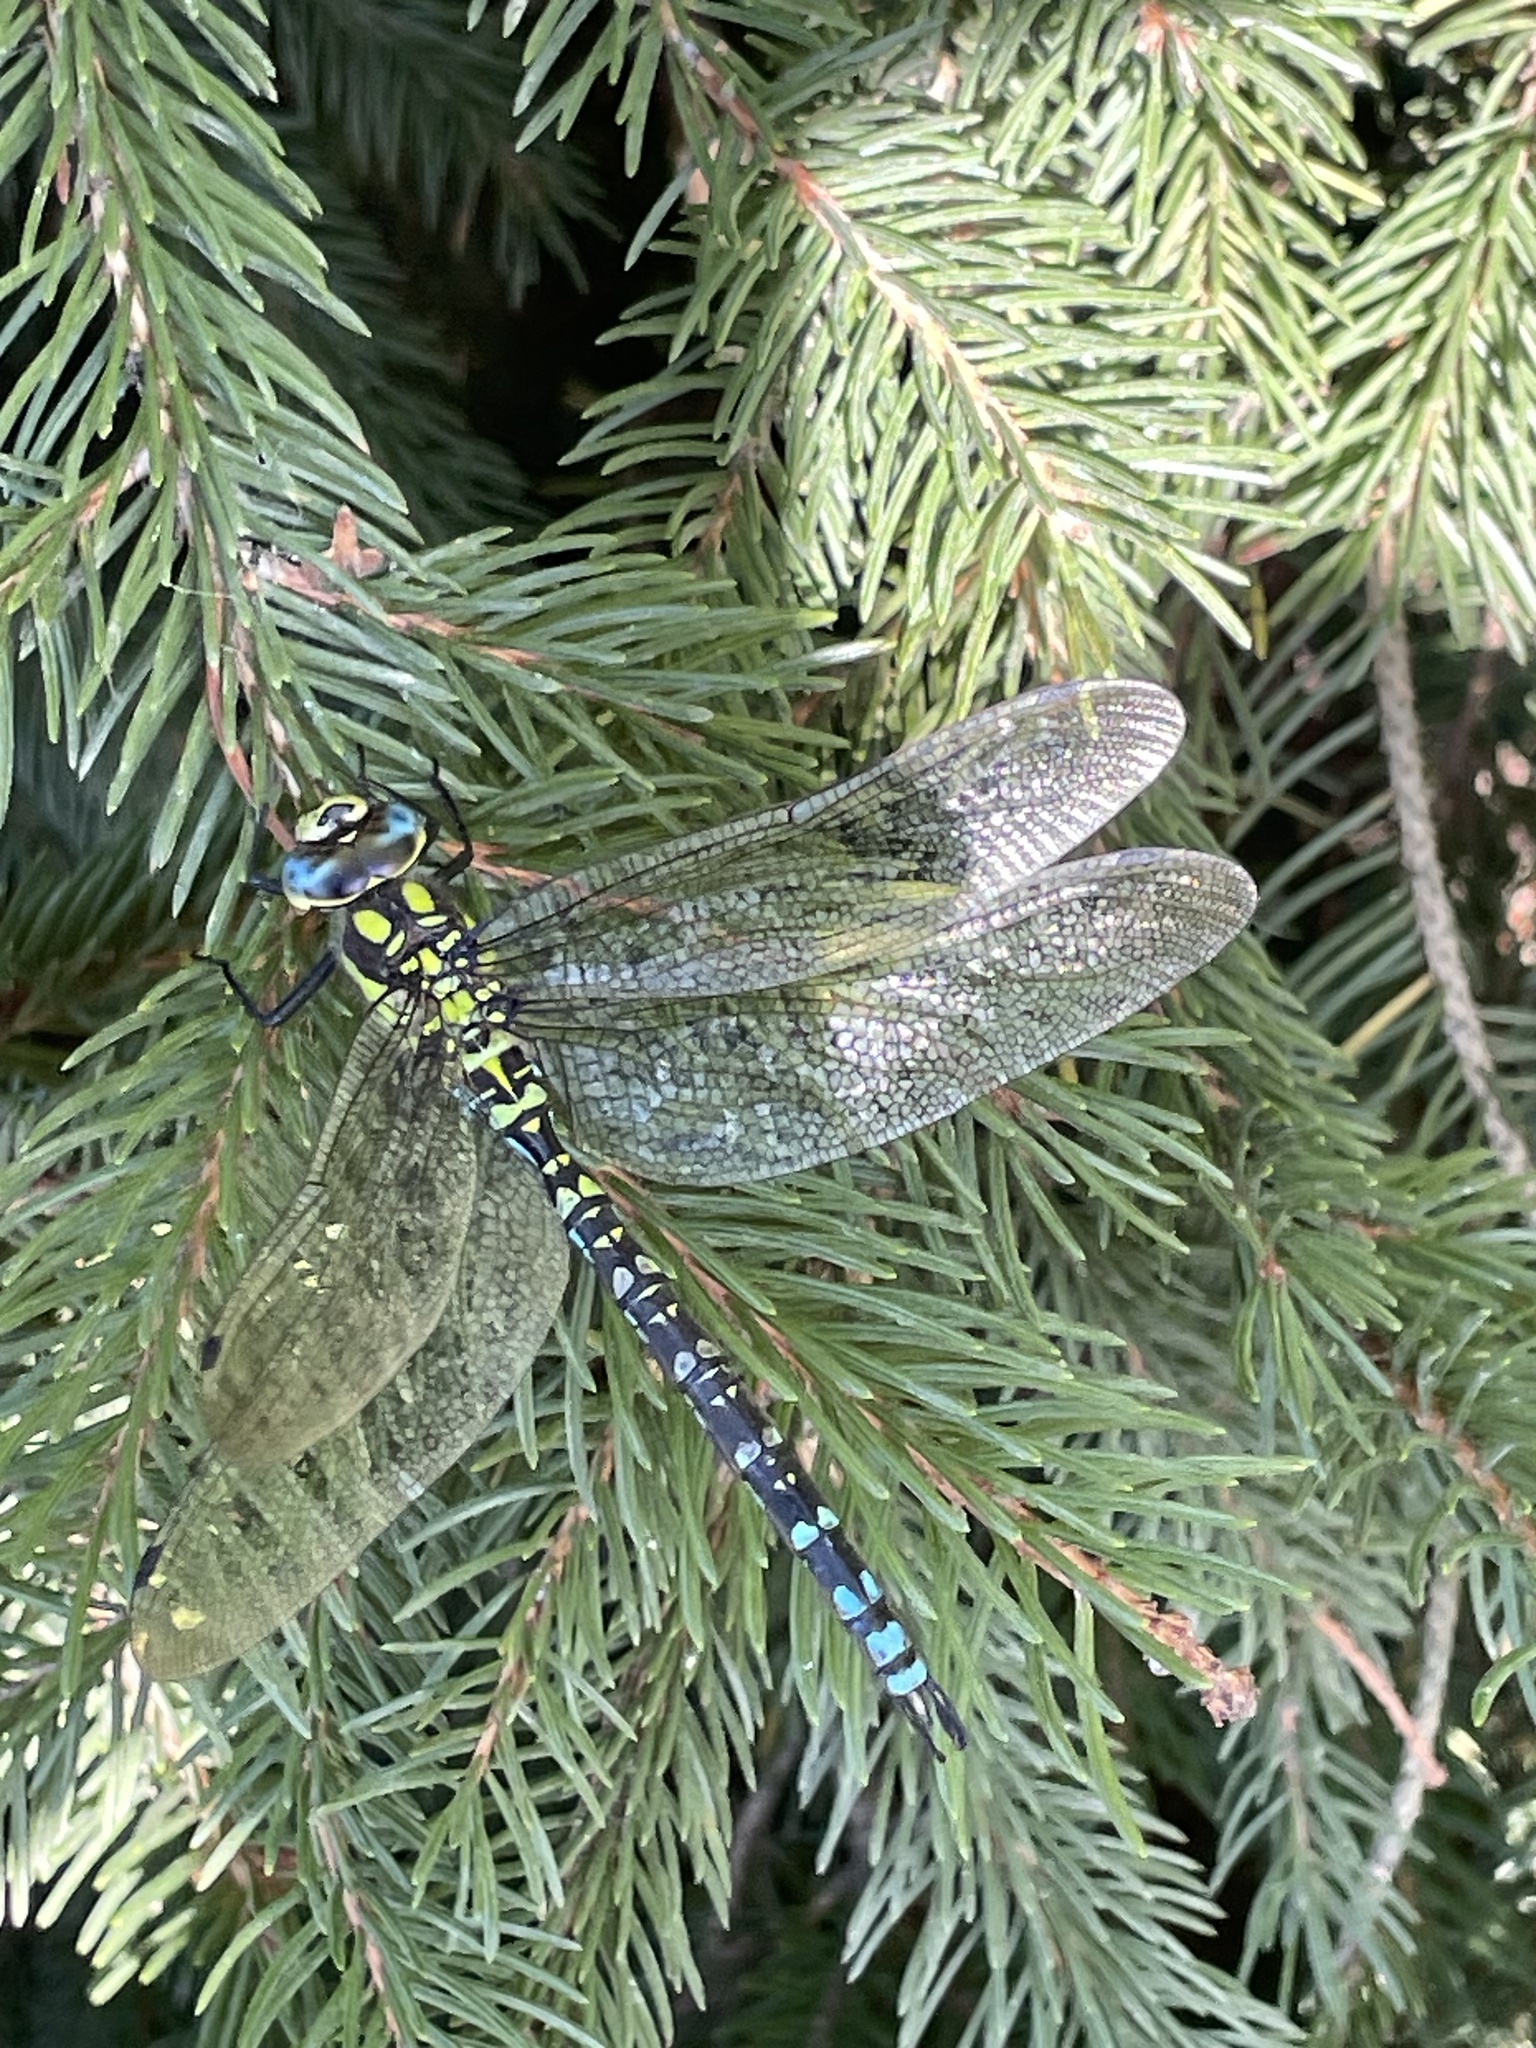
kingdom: Animalia
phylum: Arthropoda
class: Insecta
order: Odonata
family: Aeshnidae
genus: Aeshna
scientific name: Aeshna cyanea
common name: Southern hawker
